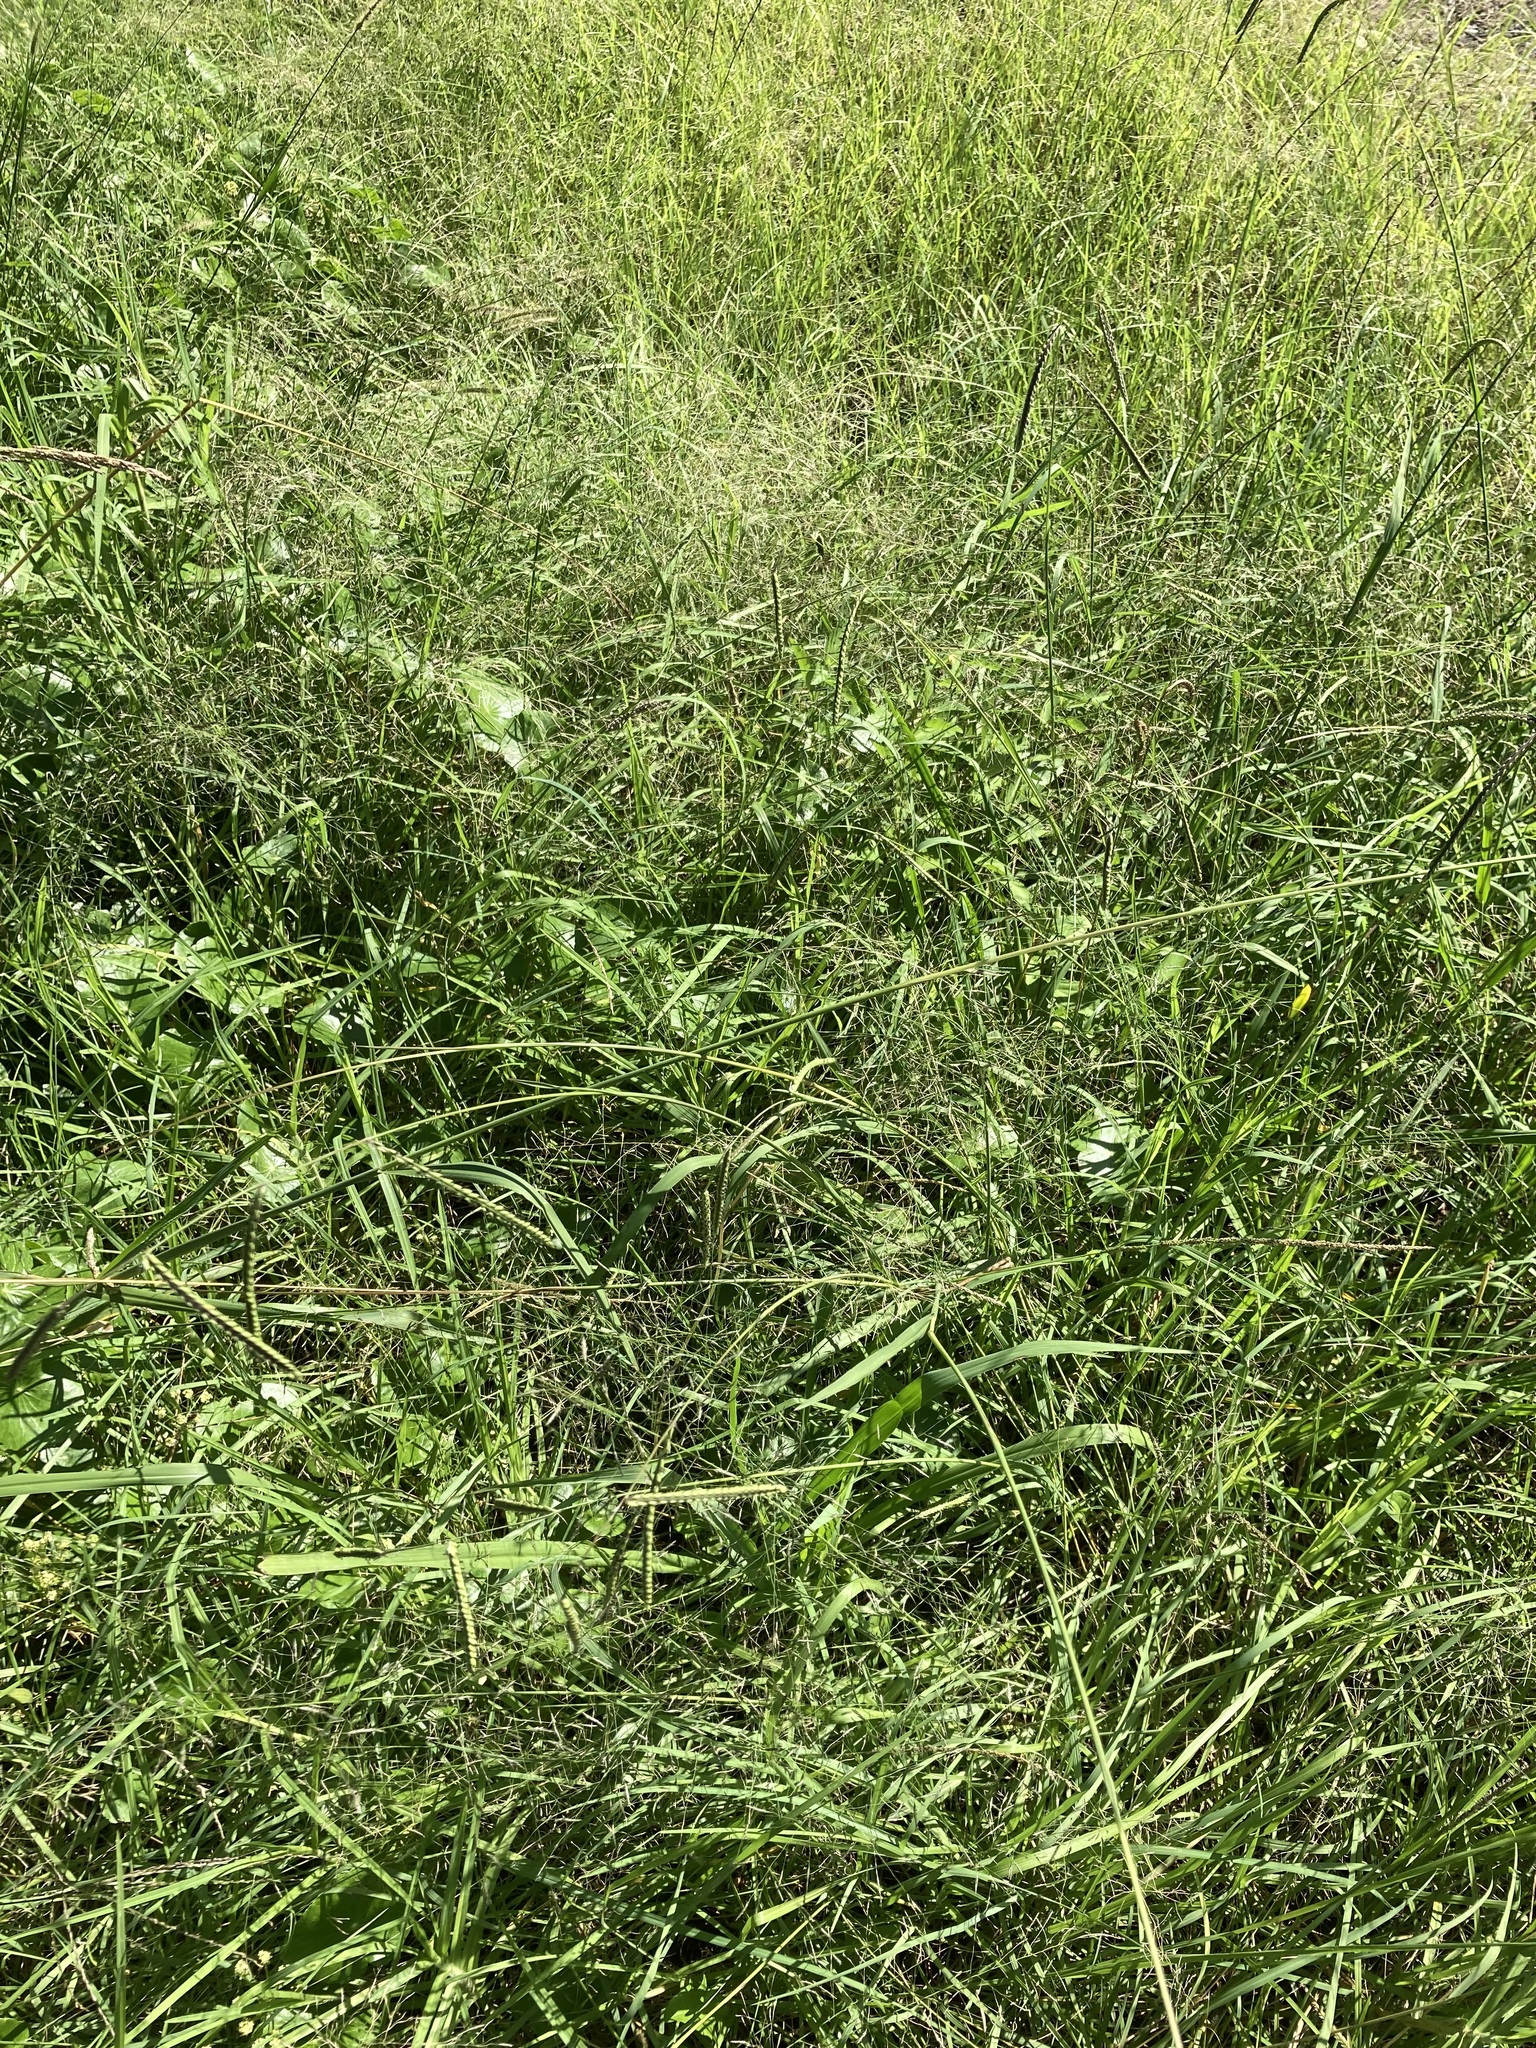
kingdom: Plantae
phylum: Tracheophyta
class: Liliopsida
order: Poales
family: Poaceae
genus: Paspalum
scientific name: Paspalum dilatatum
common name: Dallisgrass
